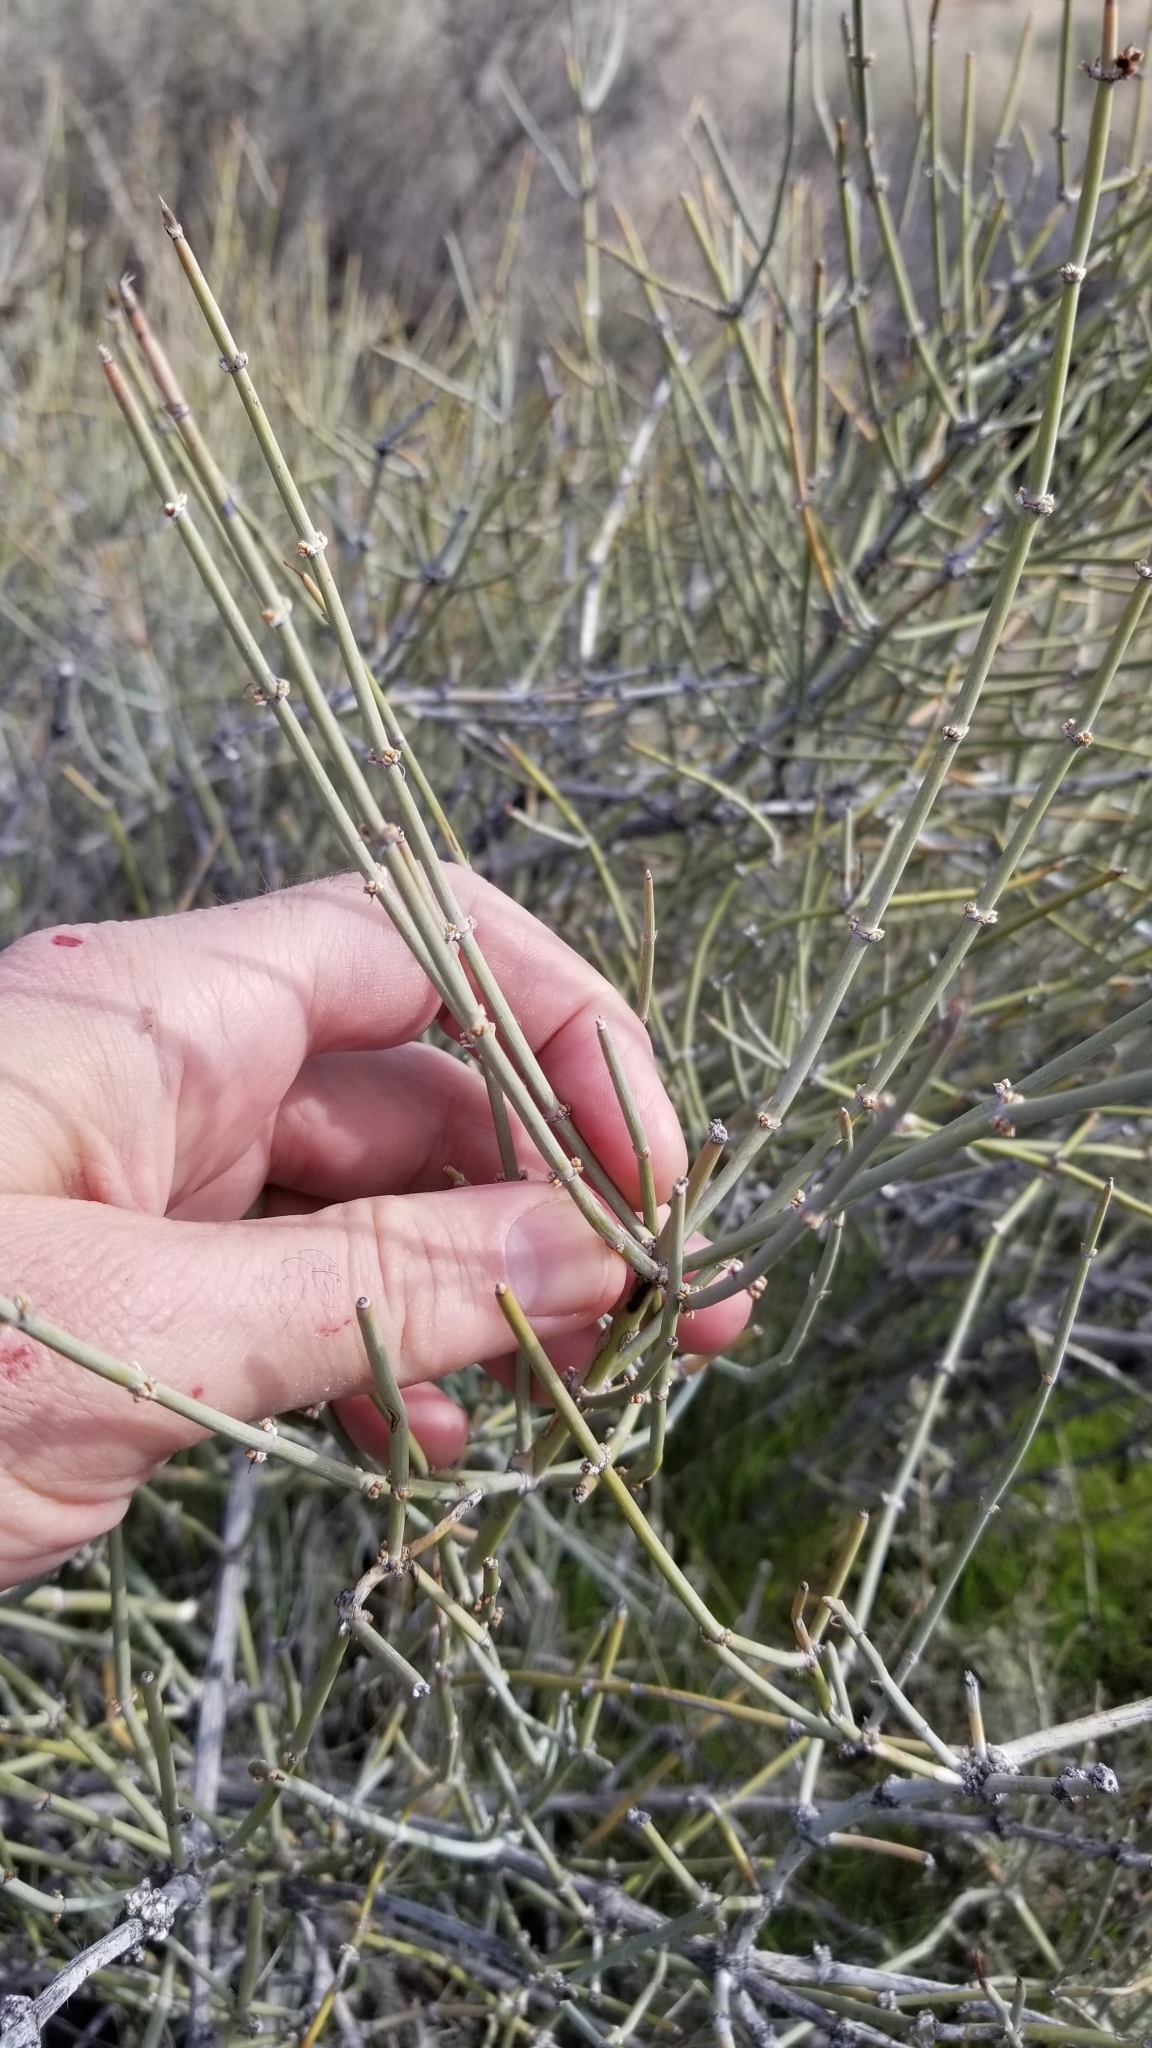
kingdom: Plantae
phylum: Tracheophyta
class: Gnetopsida
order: Ephedrales
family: Ephedraceae
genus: Ephedra
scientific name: Ephedra nevadensis
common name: Gray ephedra
